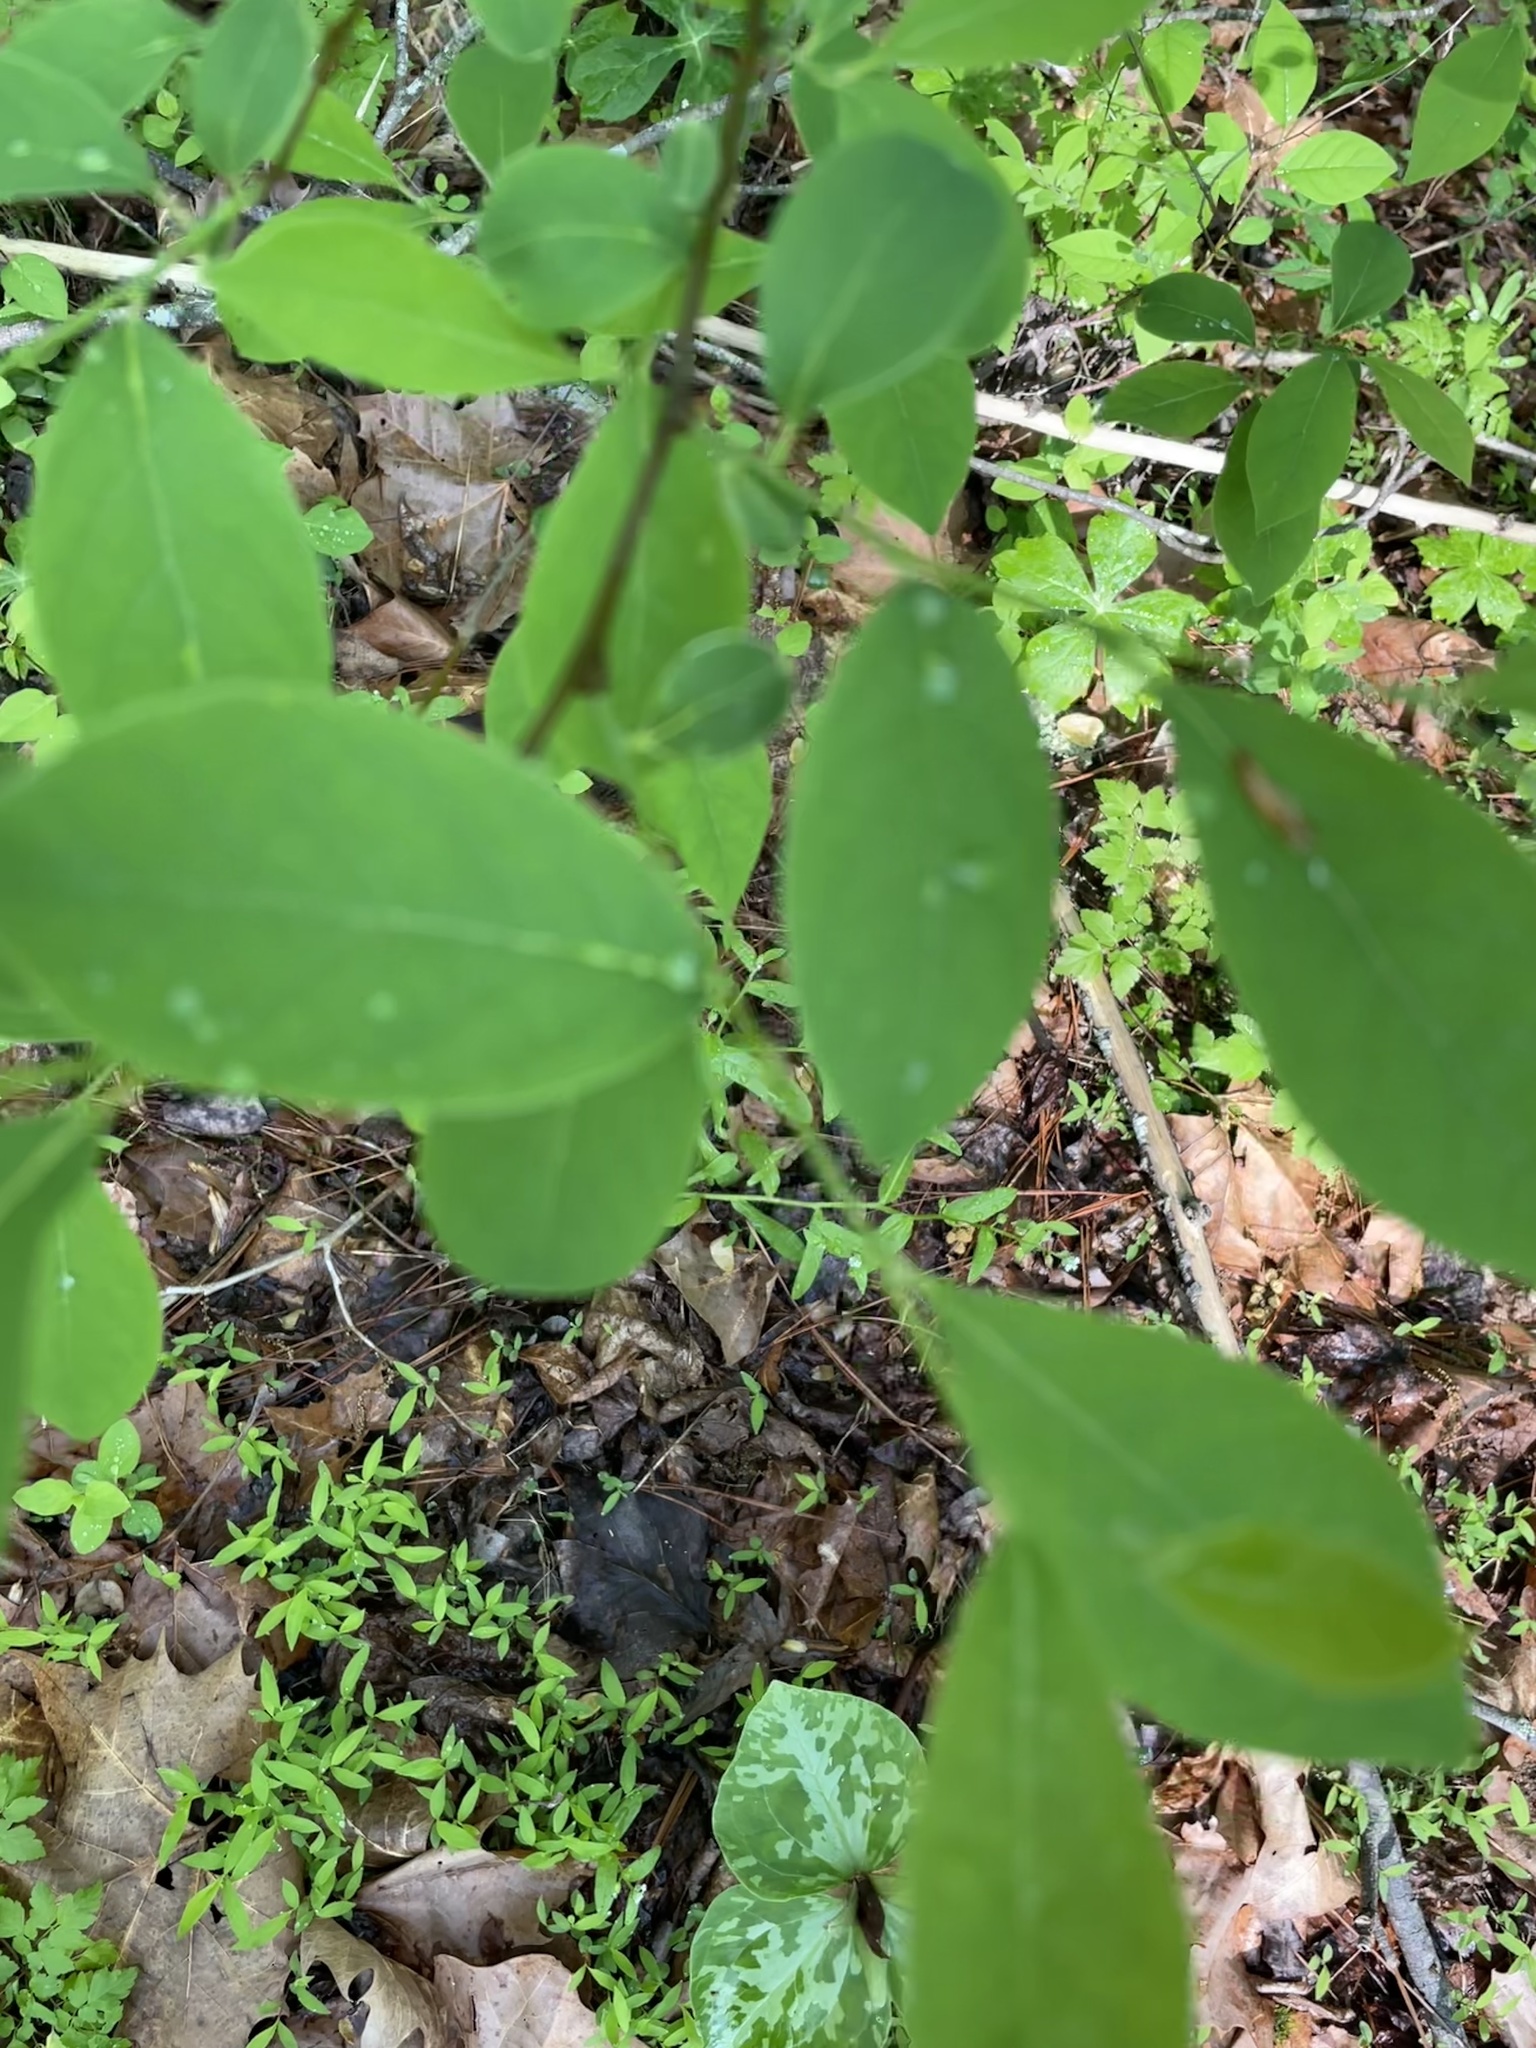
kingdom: Plantae
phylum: Tracheophyta
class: Magnoliopsida
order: Laurales
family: Lauraceae
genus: Lindera
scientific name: Lindera benzoin
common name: Spicebush
